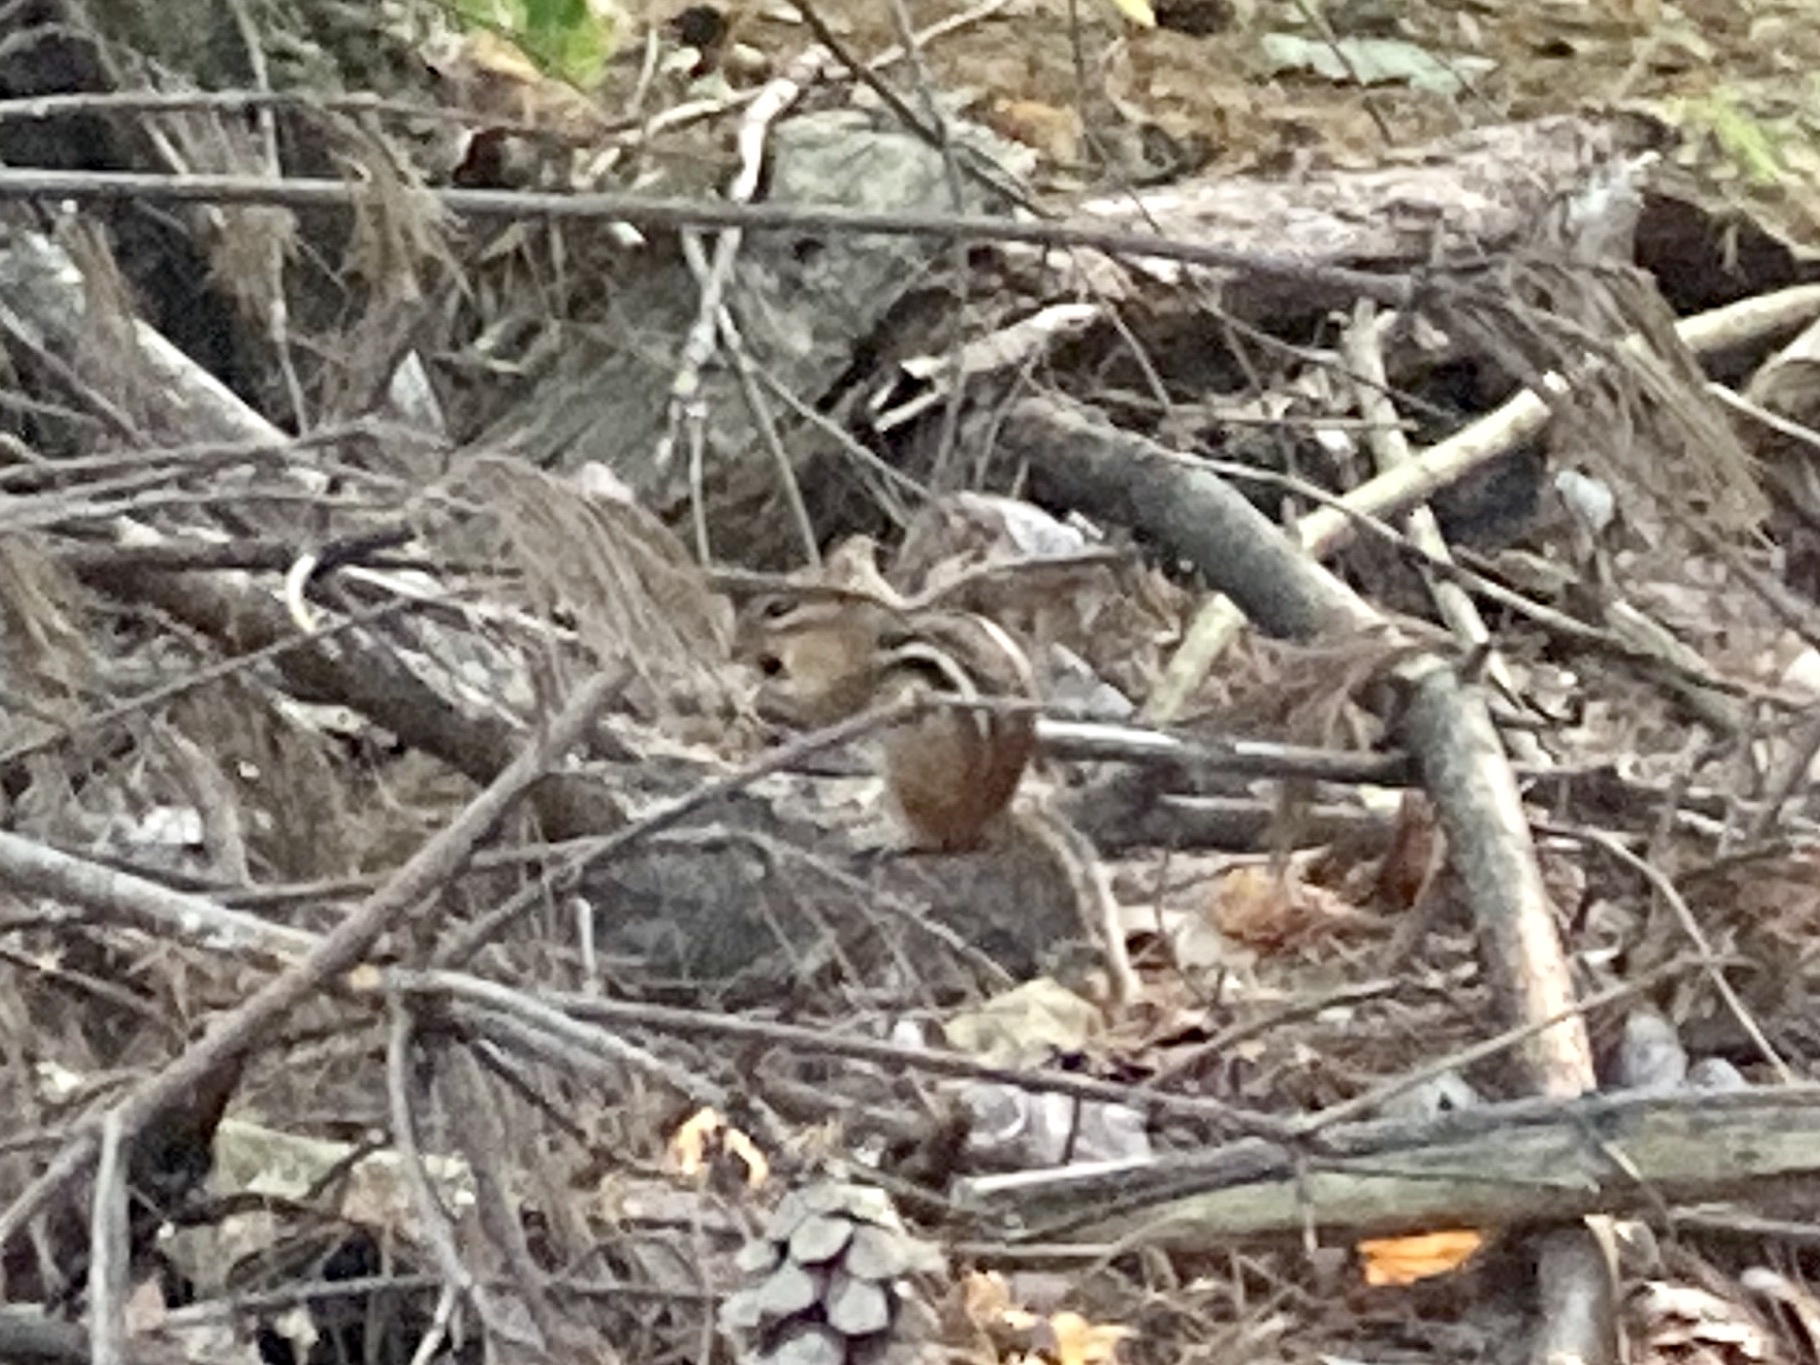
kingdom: Animalia
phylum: Chordata
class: Mammalia
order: Rodentia
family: Sciuridae
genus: Tamias
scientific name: Tamias striatus
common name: Eastern chipmunk
